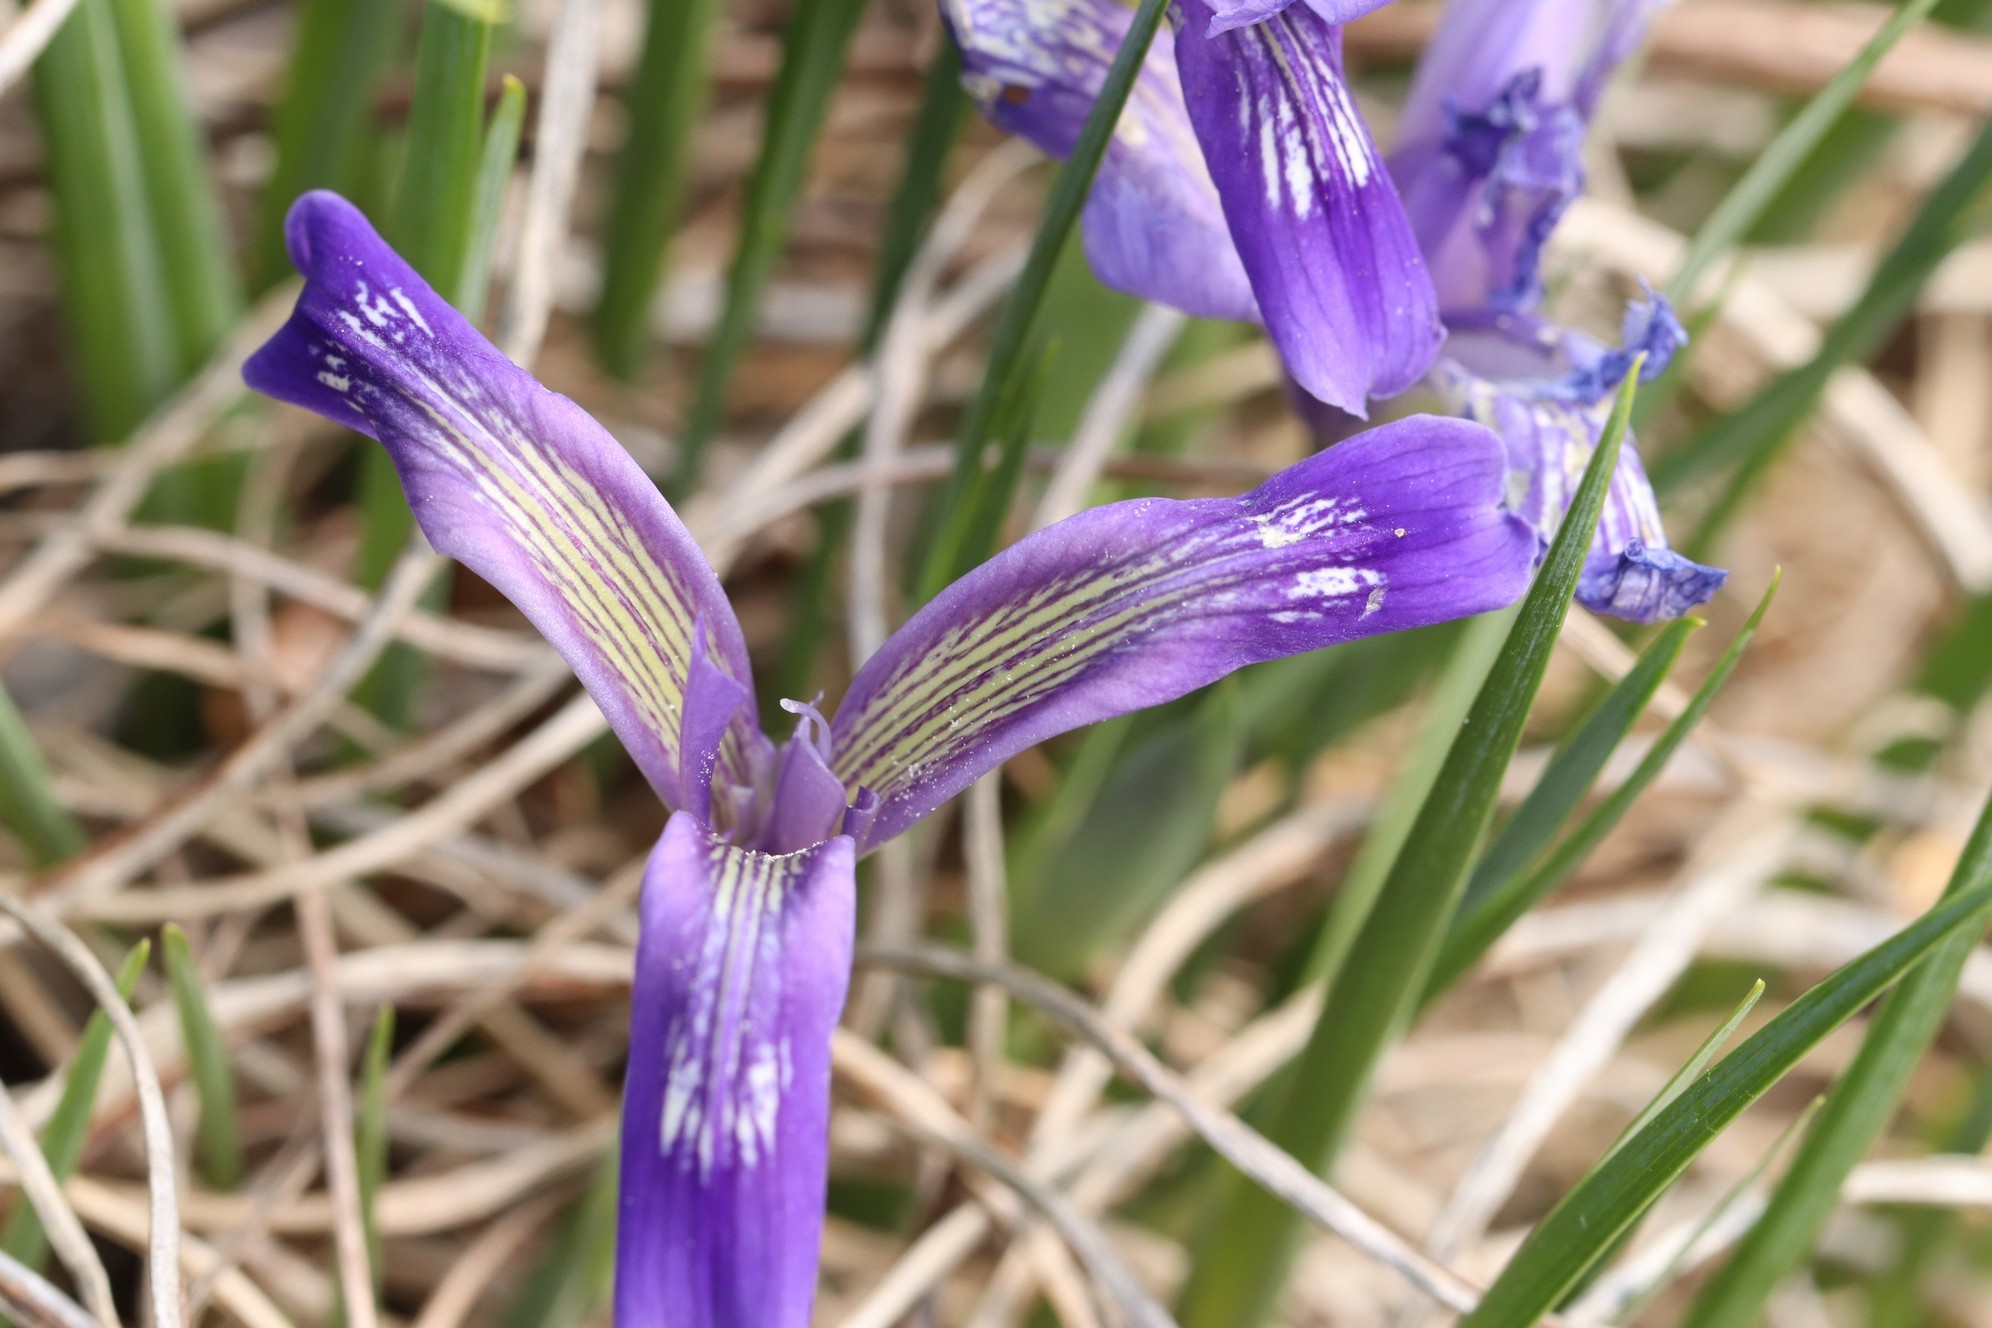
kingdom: Plantae
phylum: Tracheophyta
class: Liliopsida
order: Asparagales
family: Iridaceae
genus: Iris
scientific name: Iris ruthenica
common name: Purple-bract iris
